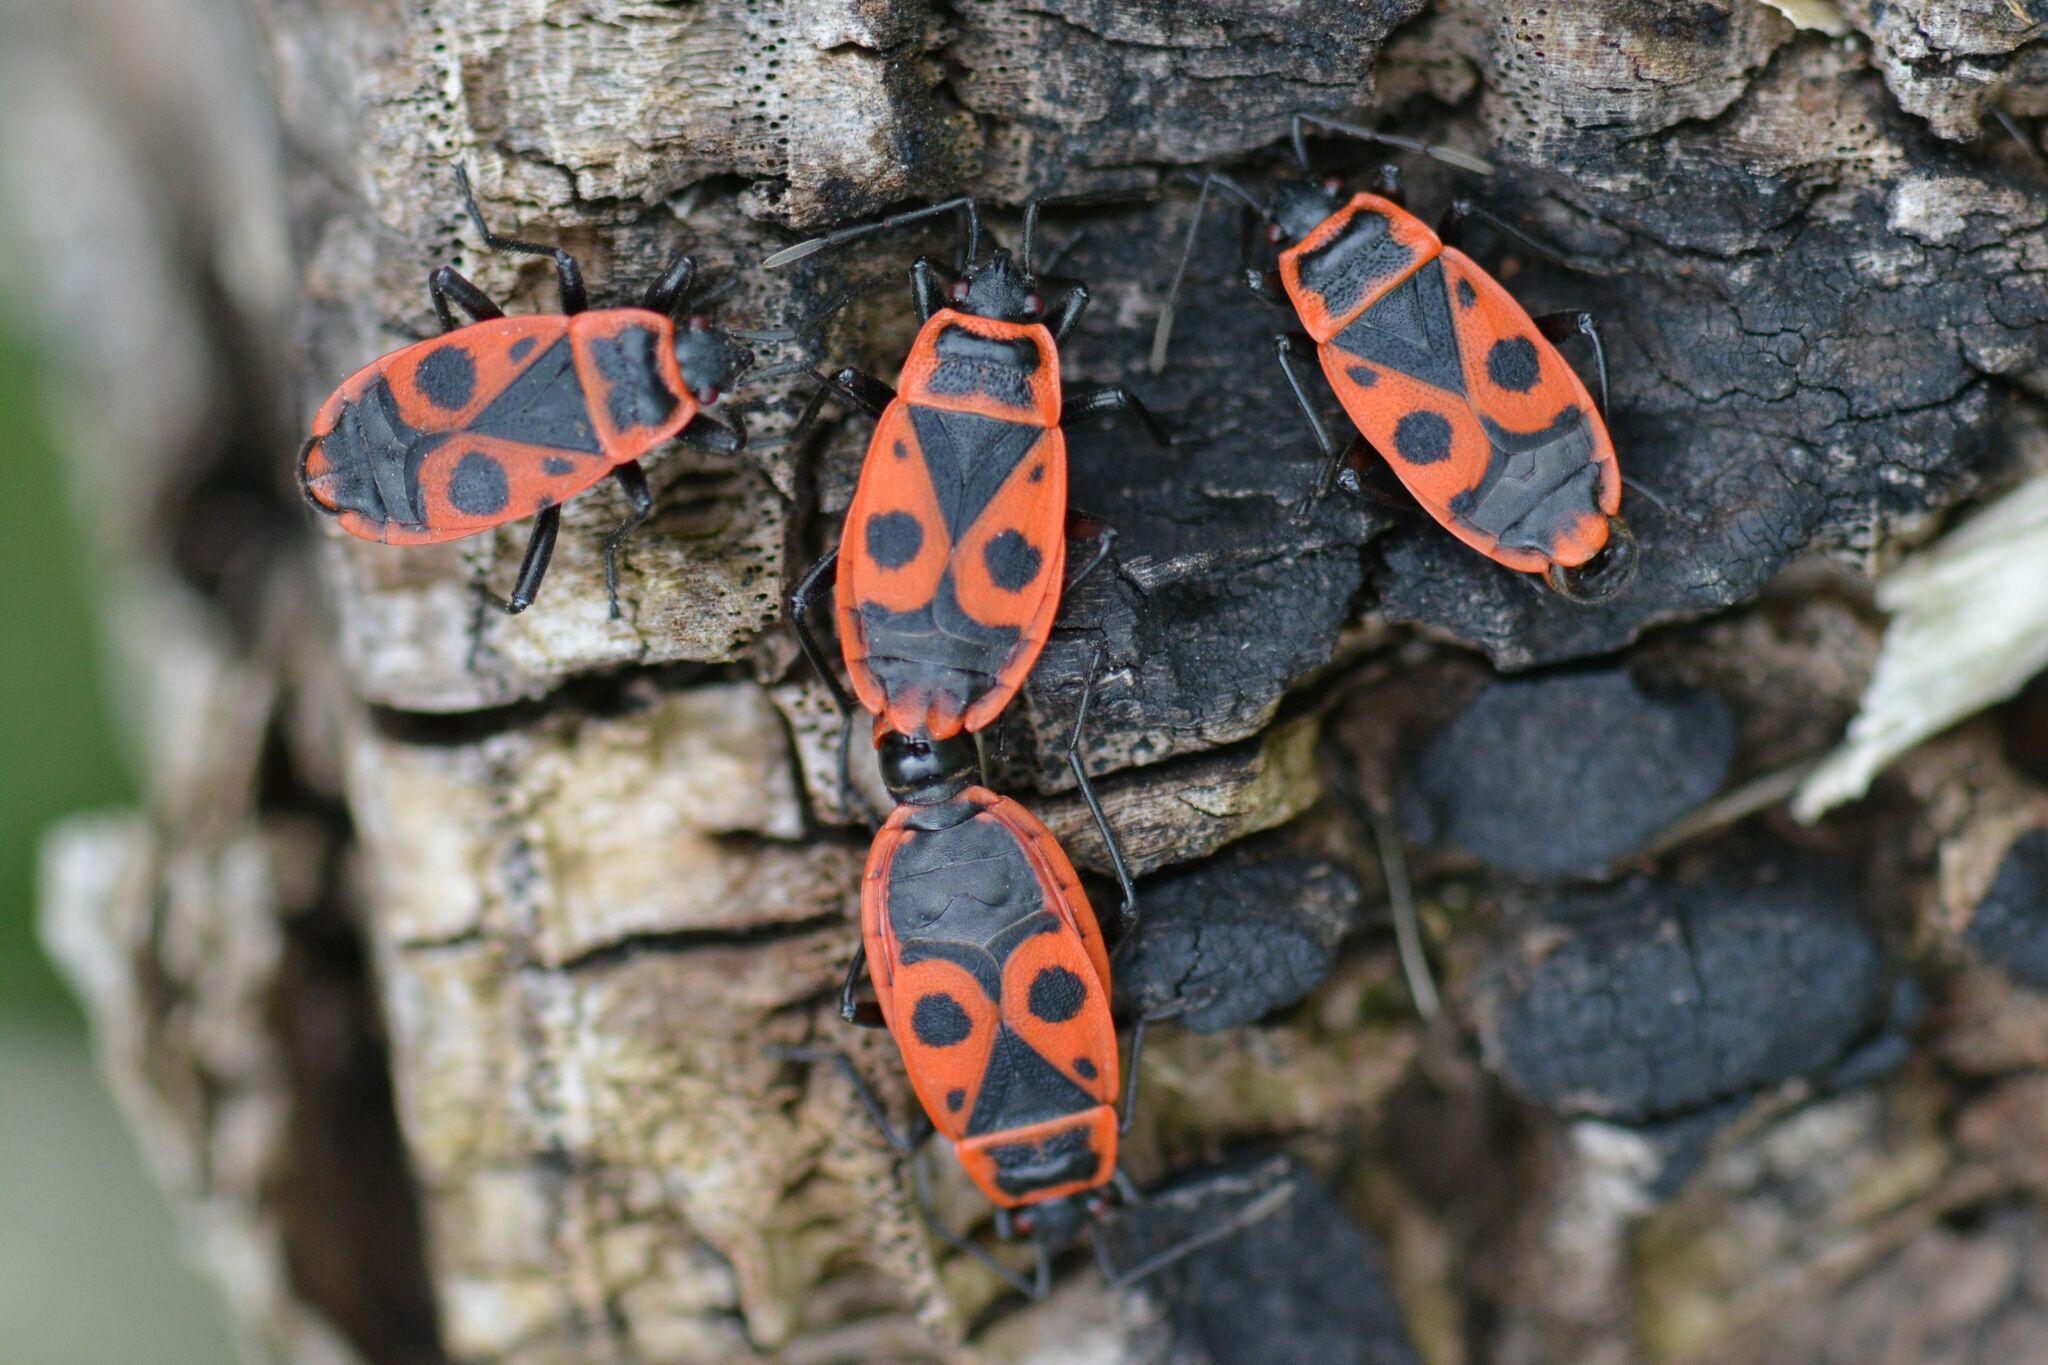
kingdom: Animalia
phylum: Arthropoda
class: Insecta
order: Hemiptera
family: Pyrrhocoridae
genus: Pyrrhocoris
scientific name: Pyrrhocoris apterus
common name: Firebug
